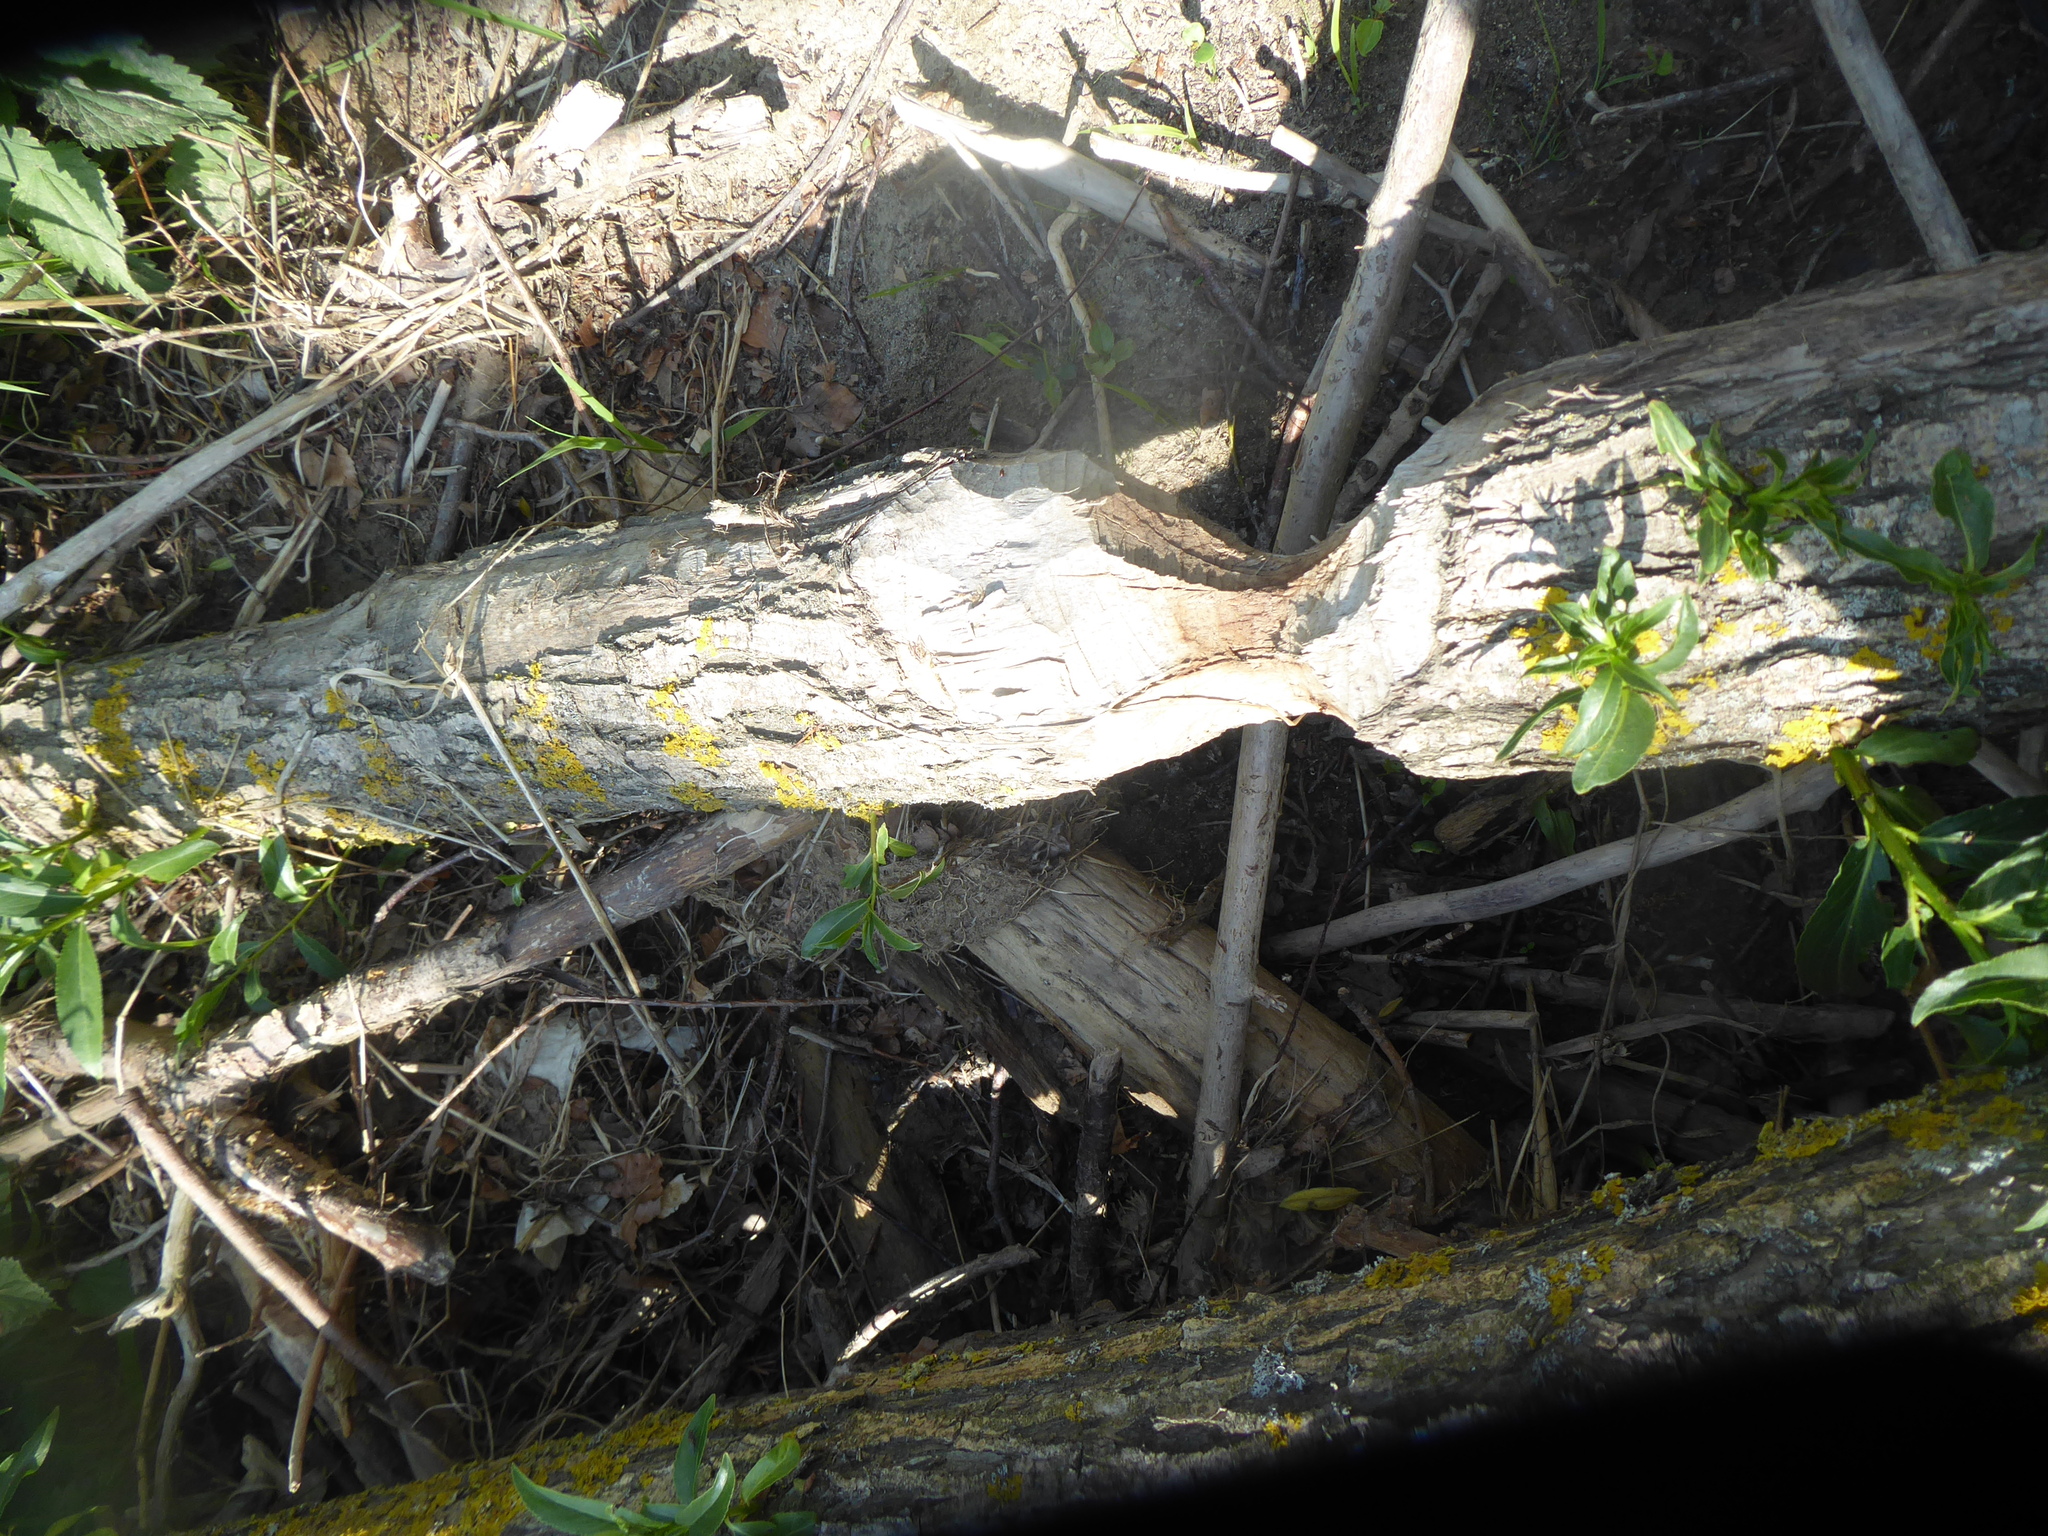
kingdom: Animalia
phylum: Chordata
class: Mammalia
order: Rodentia
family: Castoridae
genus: Castor
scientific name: Castor fiber
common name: Eurasian beaver
